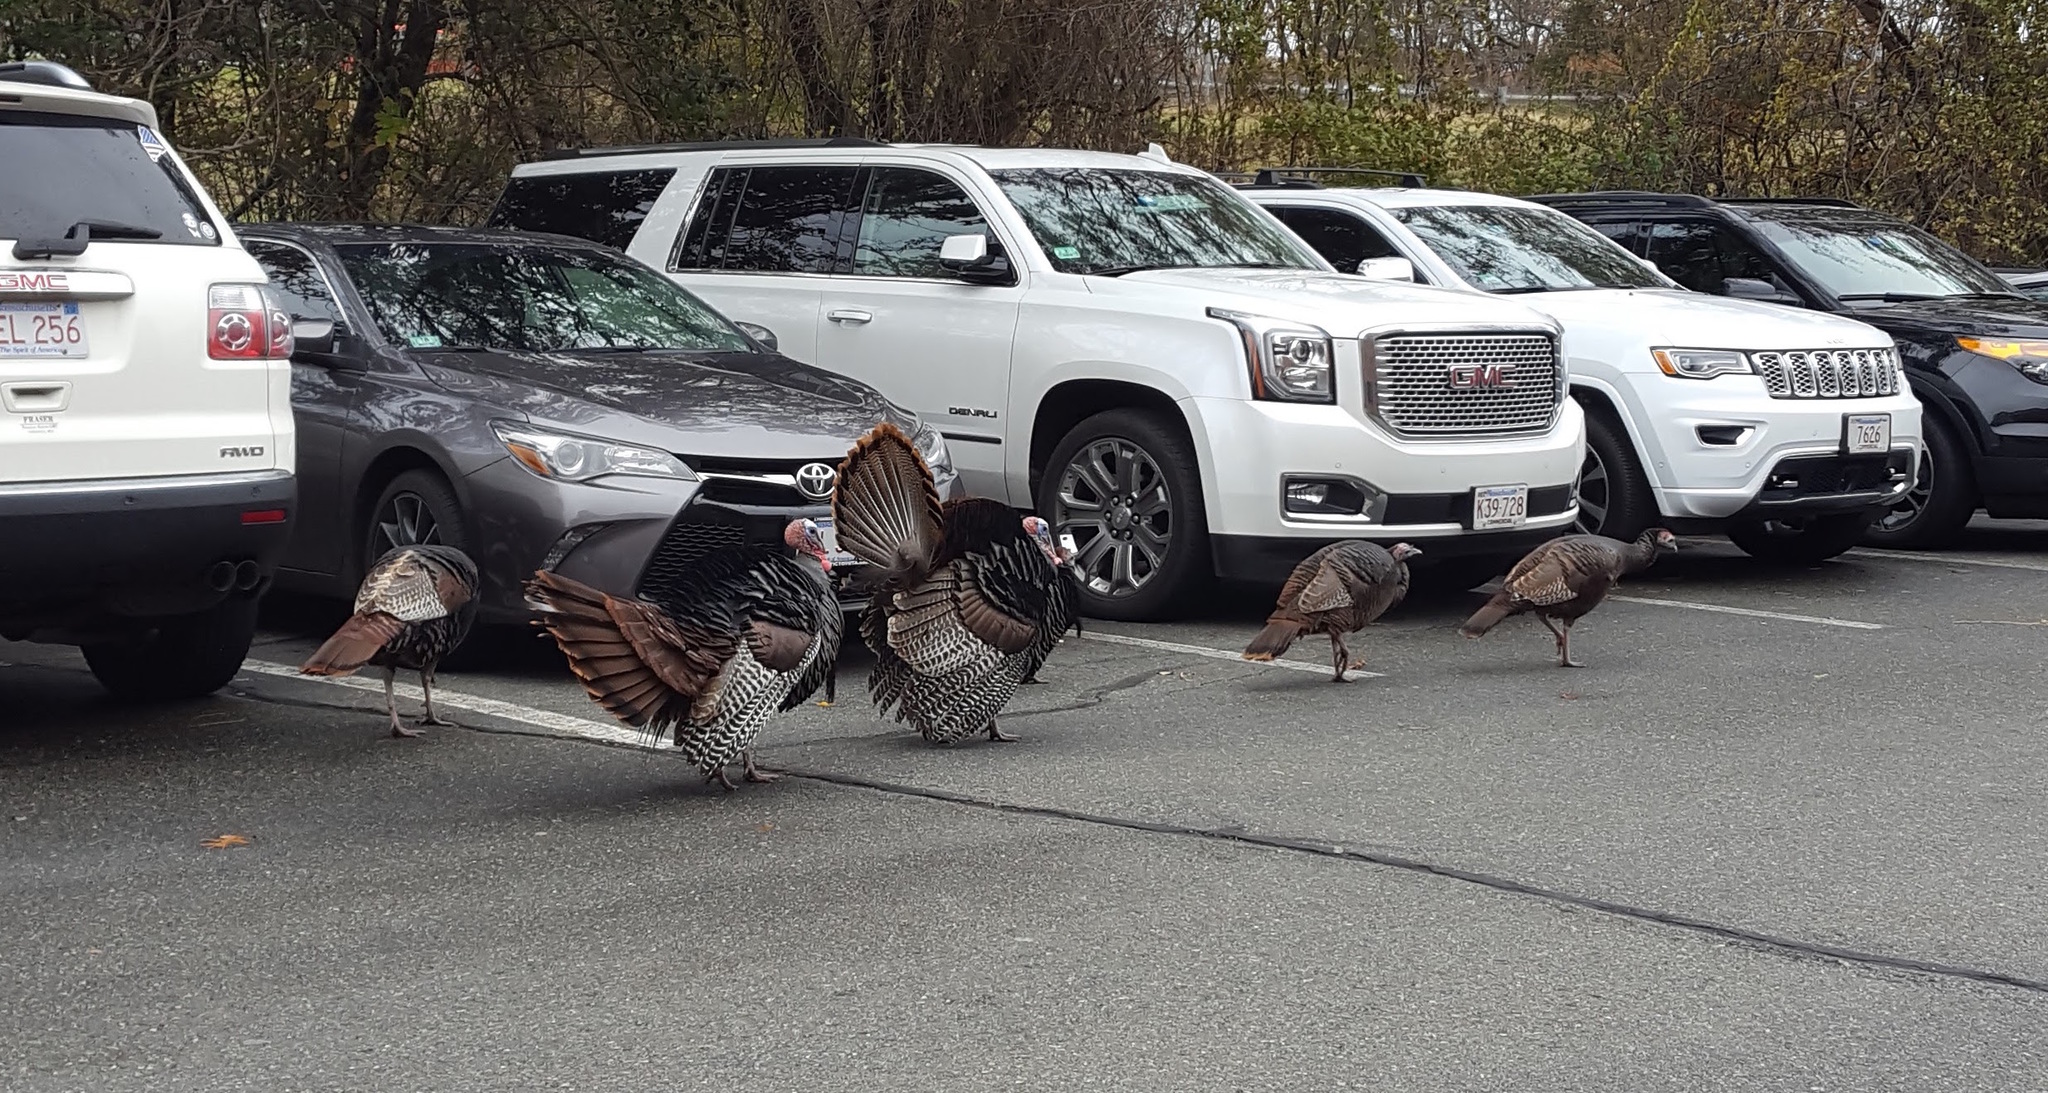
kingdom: Animalia
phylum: Chordata
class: Aves
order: Galliformes
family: Phasianidae
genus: Meleagris
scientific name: Meleagris gallopavo
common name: Wild turkey
